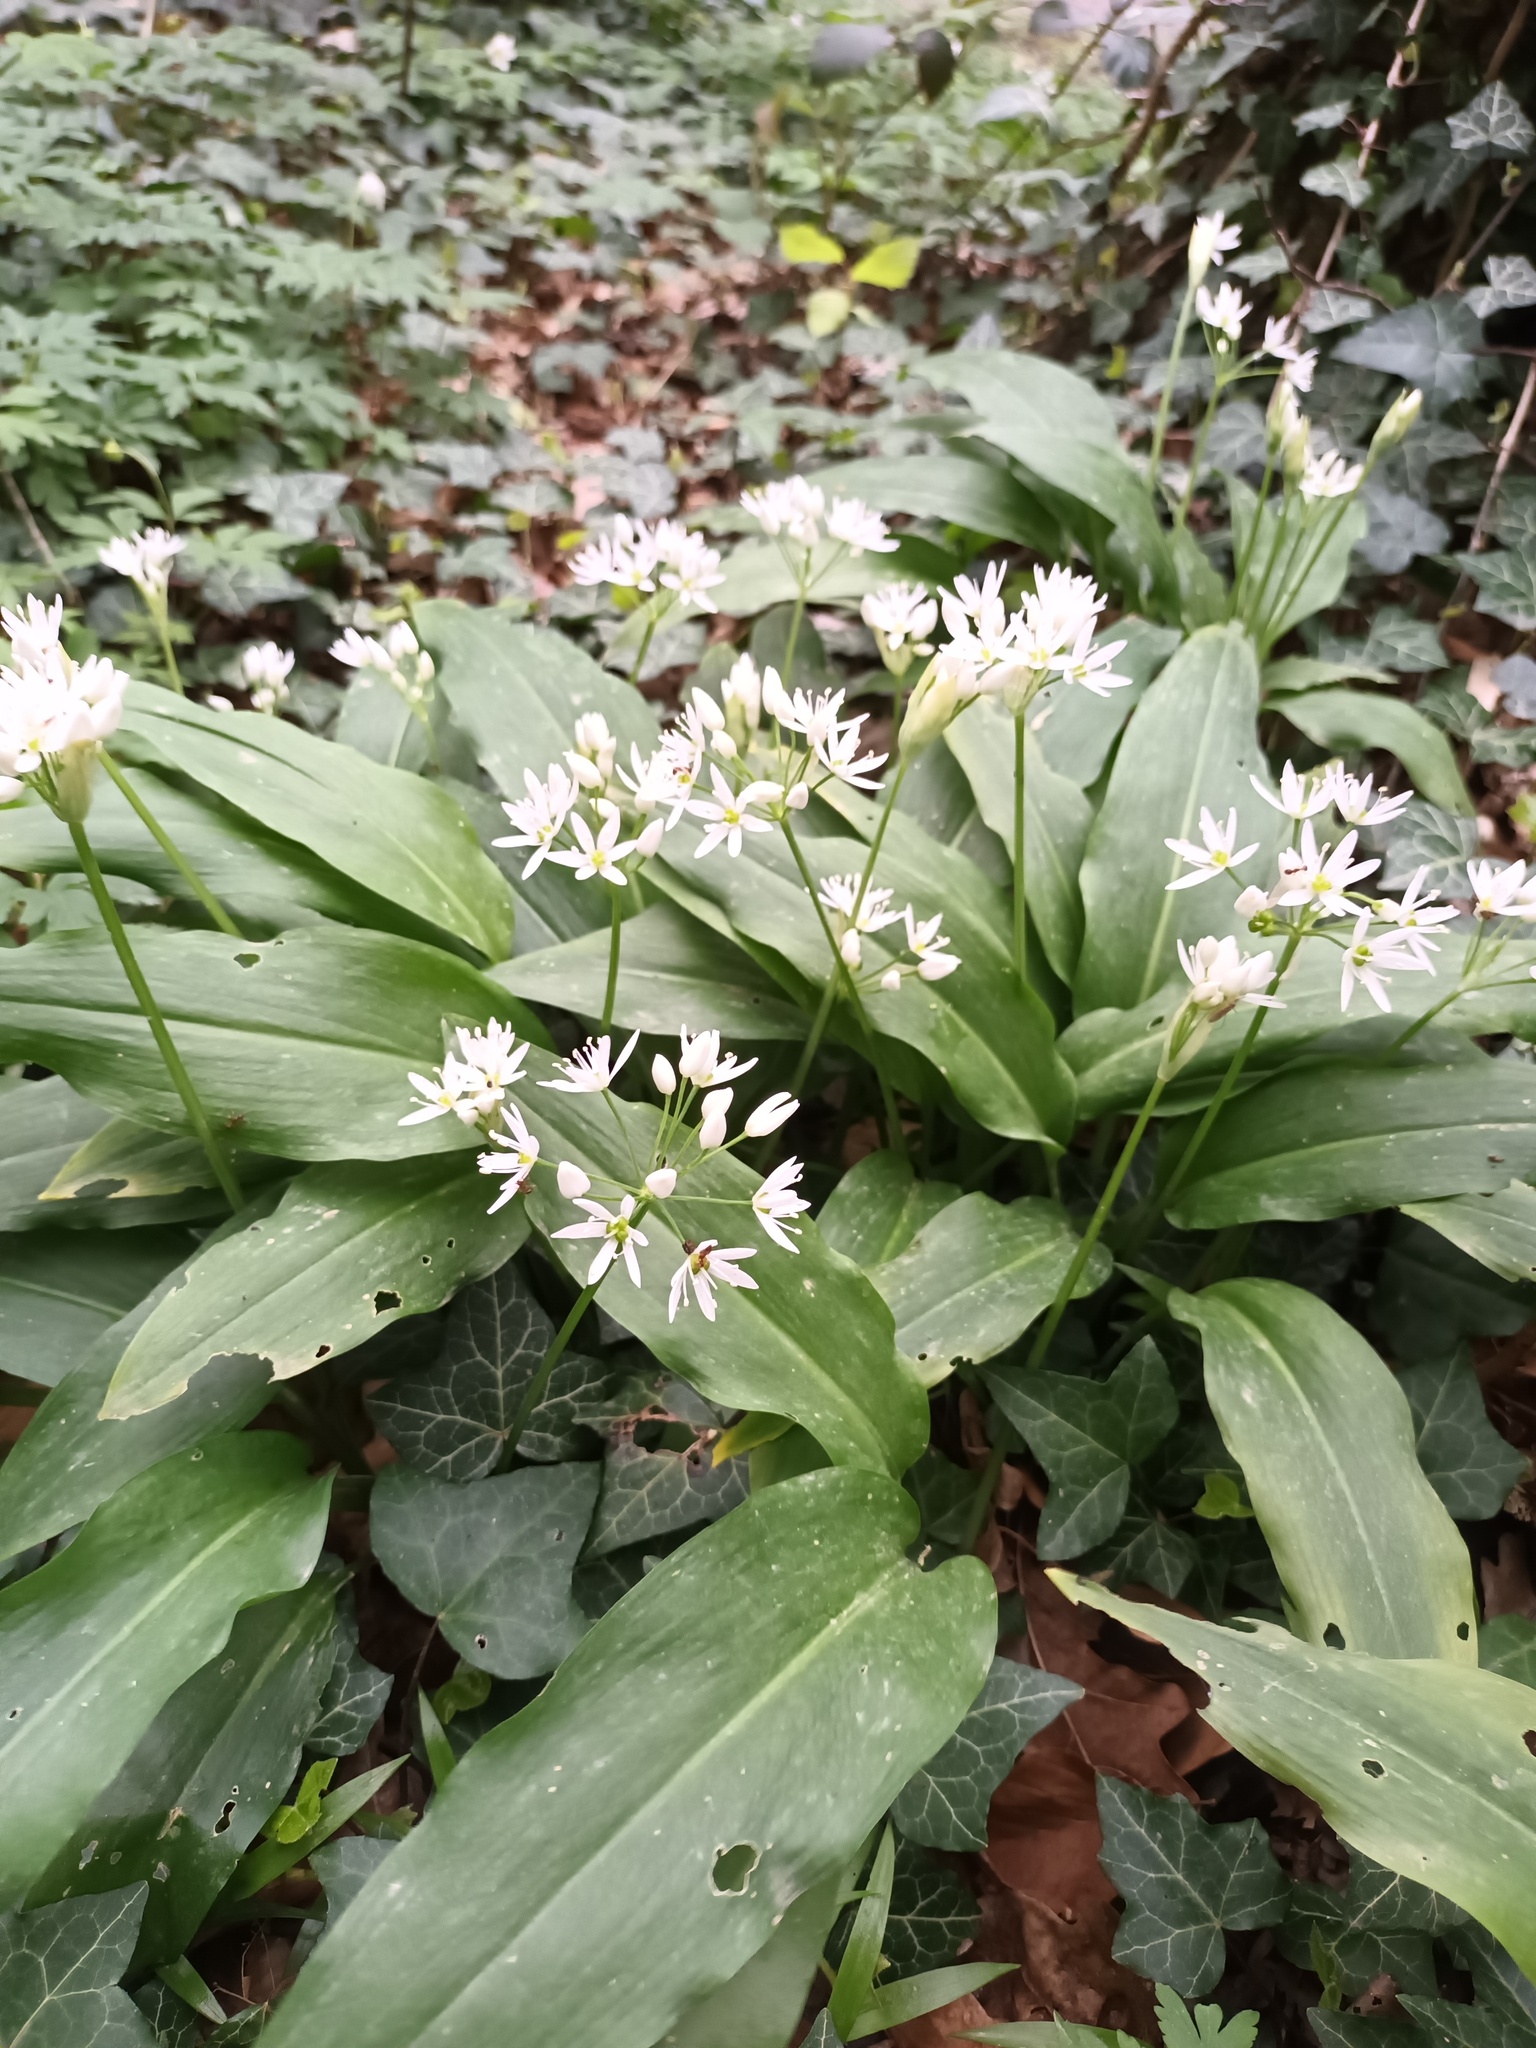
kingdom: Plantae
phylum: Tracheophyta
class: Liliopsida
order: Asparagales
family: Amaryllidaceae
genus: Allium
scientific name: Allium ursinum
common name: Ramsons
